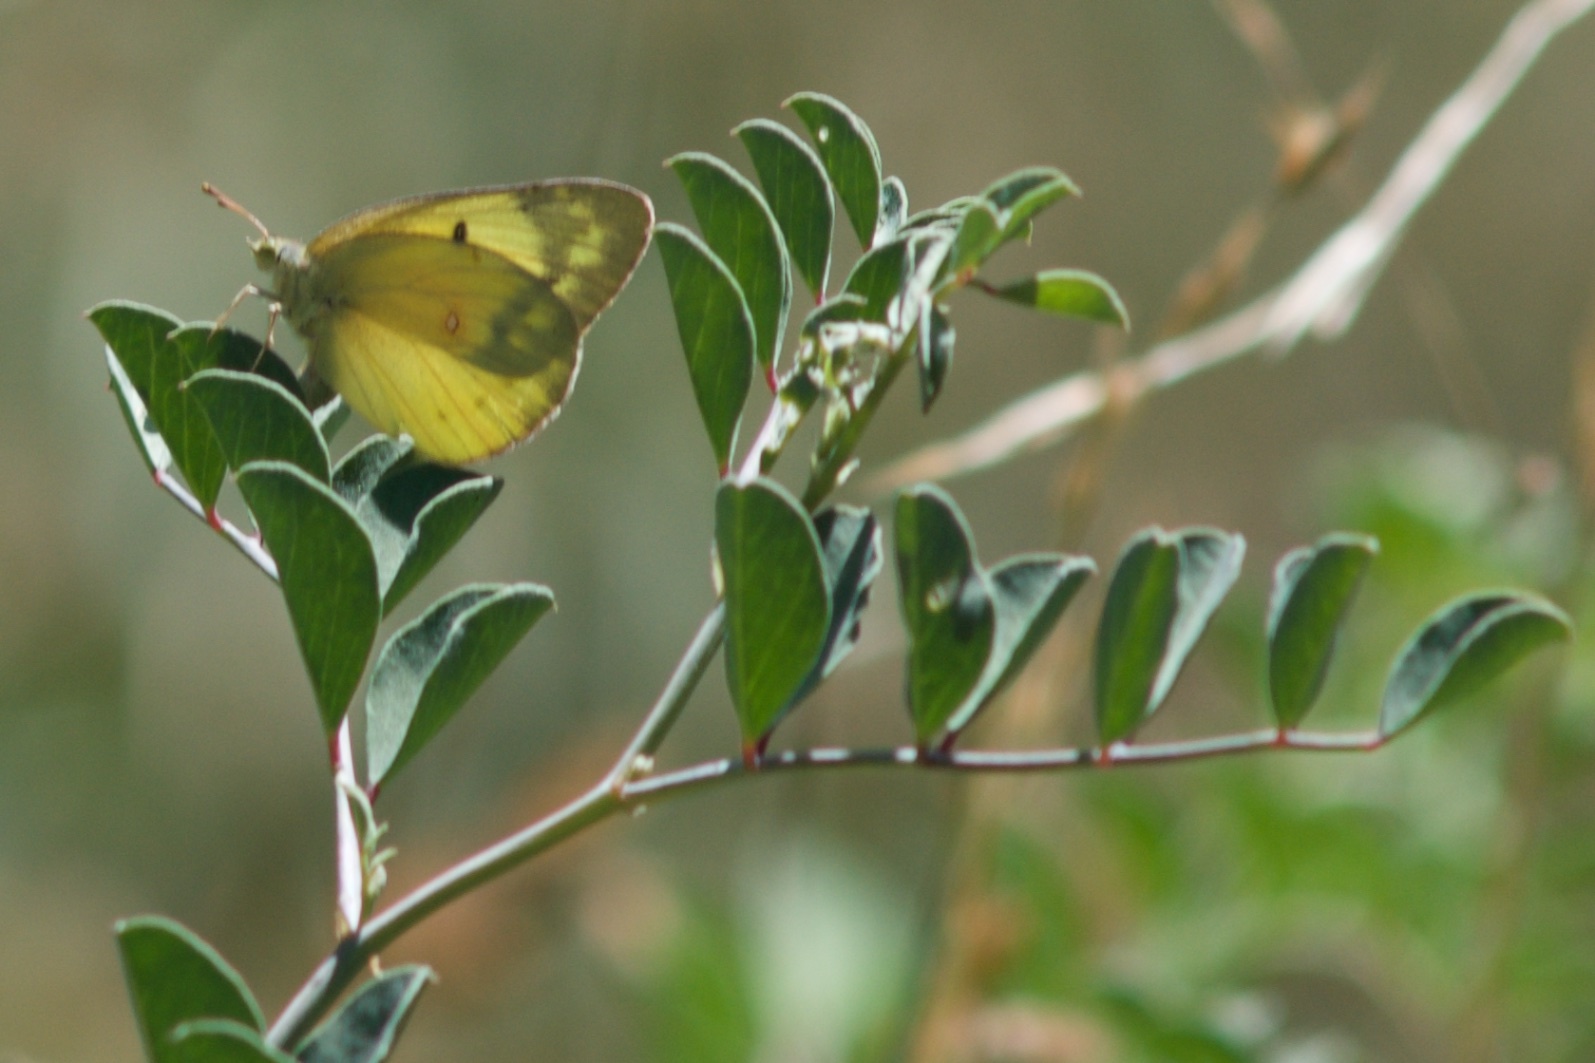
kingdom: Animalia
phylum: Arthropoda
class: Insecta
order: Lepidoptera
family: Pieridae
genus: Colias
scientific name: Colias eurytheme
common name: Alfalfa butterfly
